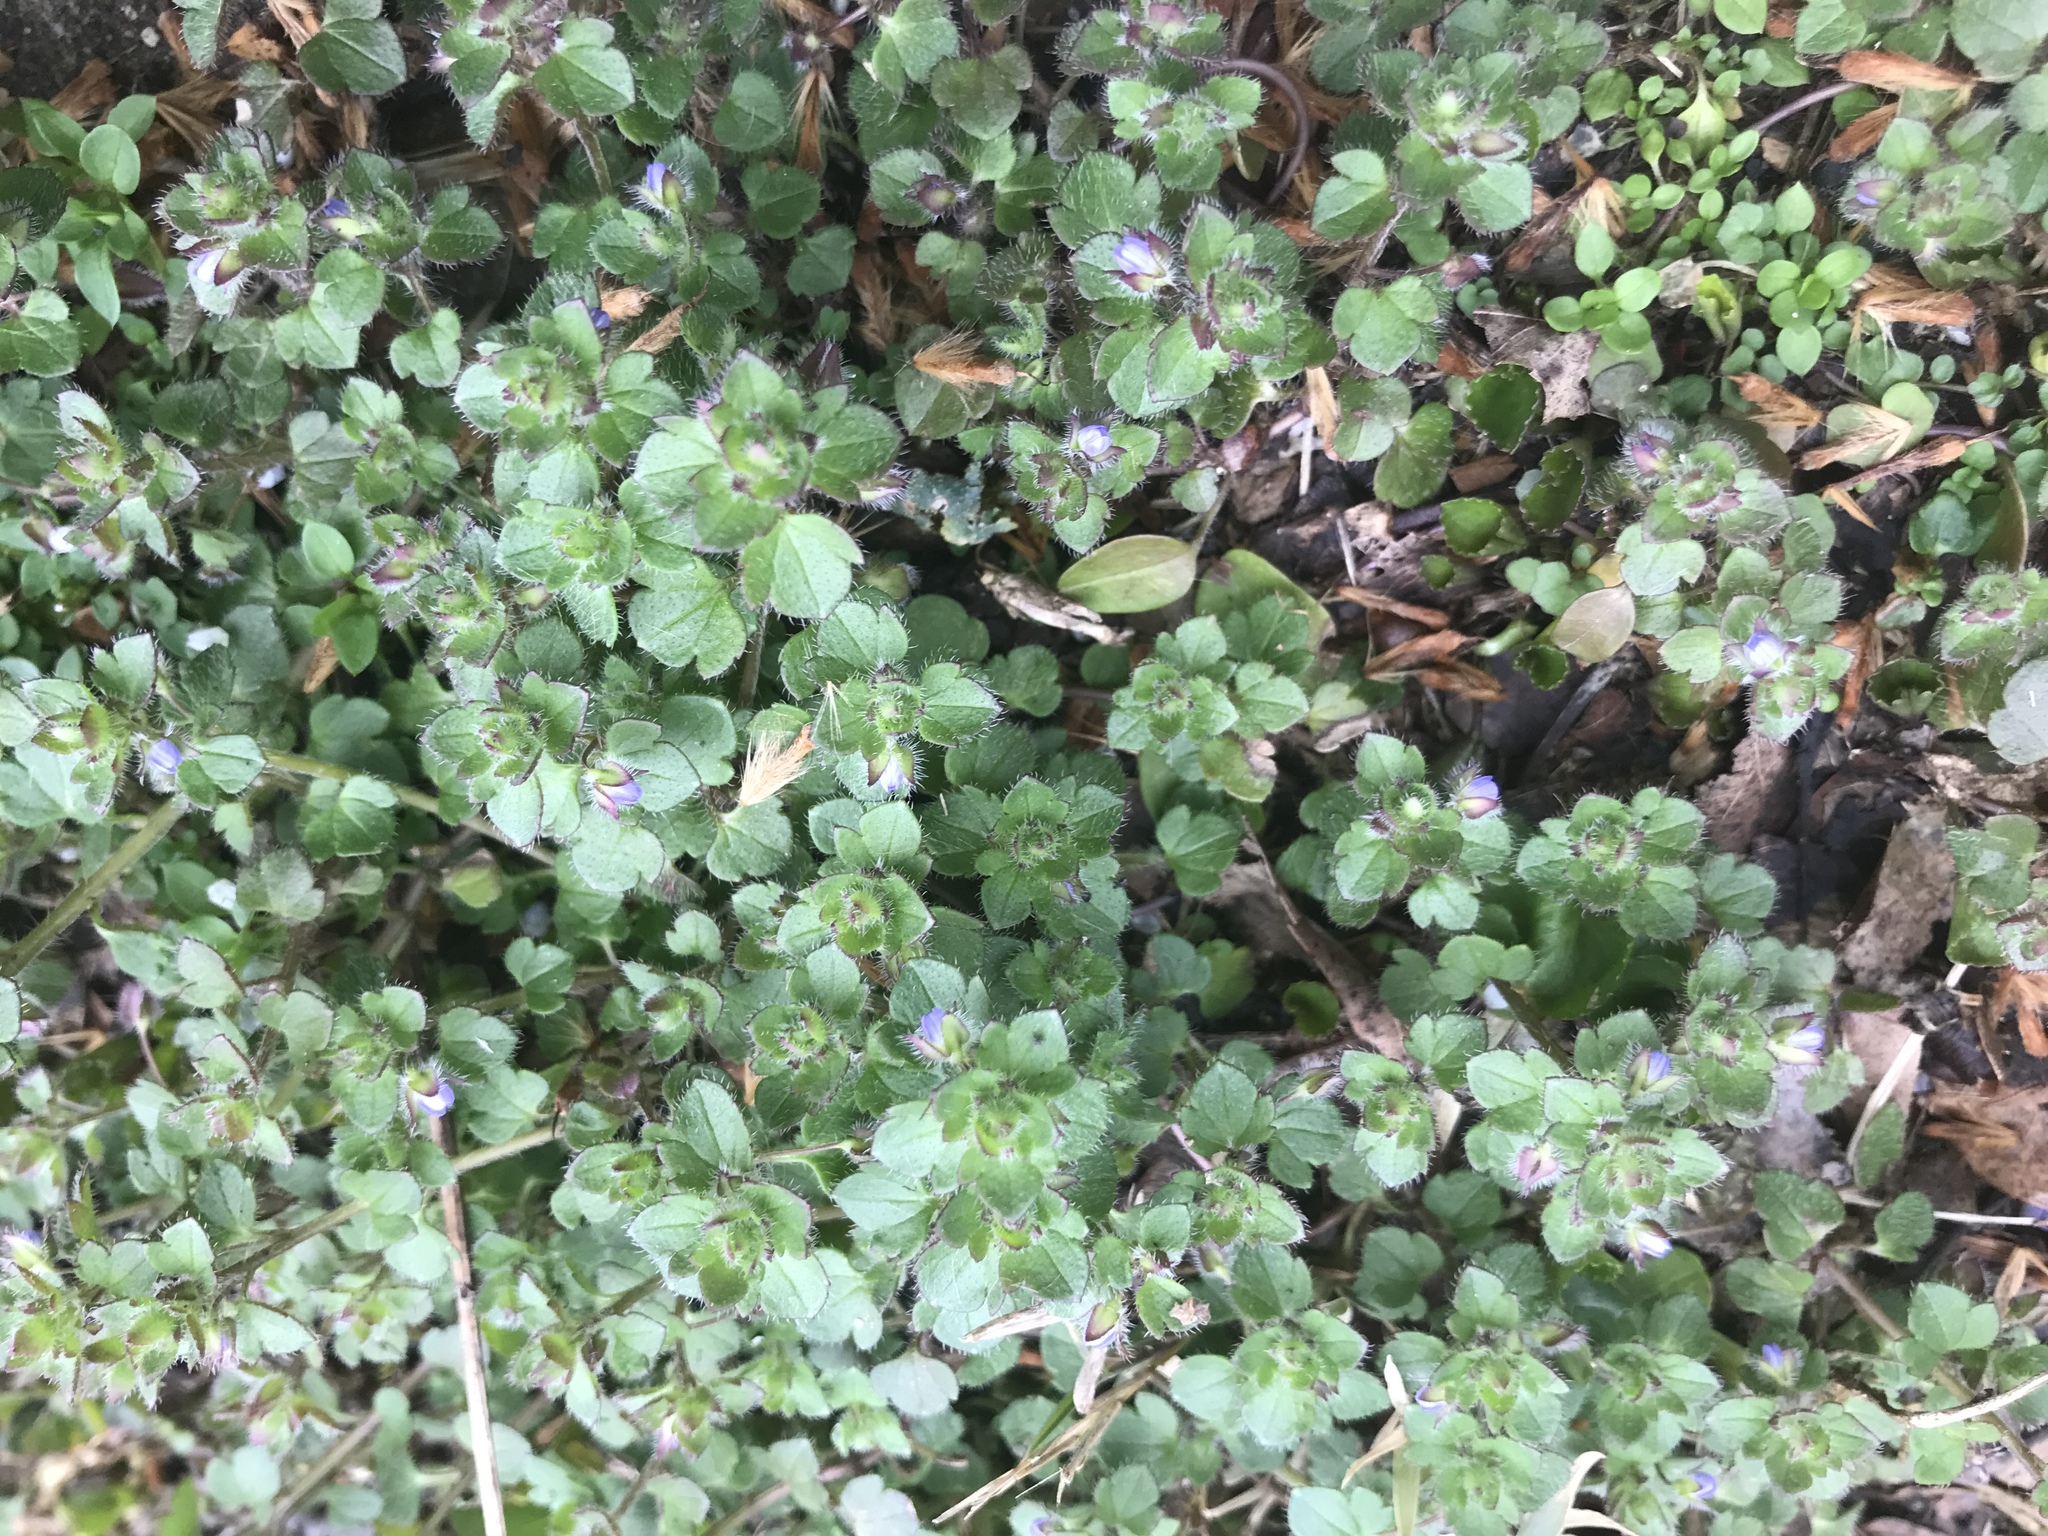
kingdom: Plantae
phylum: Tracheophyta
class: Magnoliopsida
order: Lamiales
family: Plantaginaceae
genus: Veronica
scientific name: Veronica hederifolia
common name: Ivy-leaved speedwell
